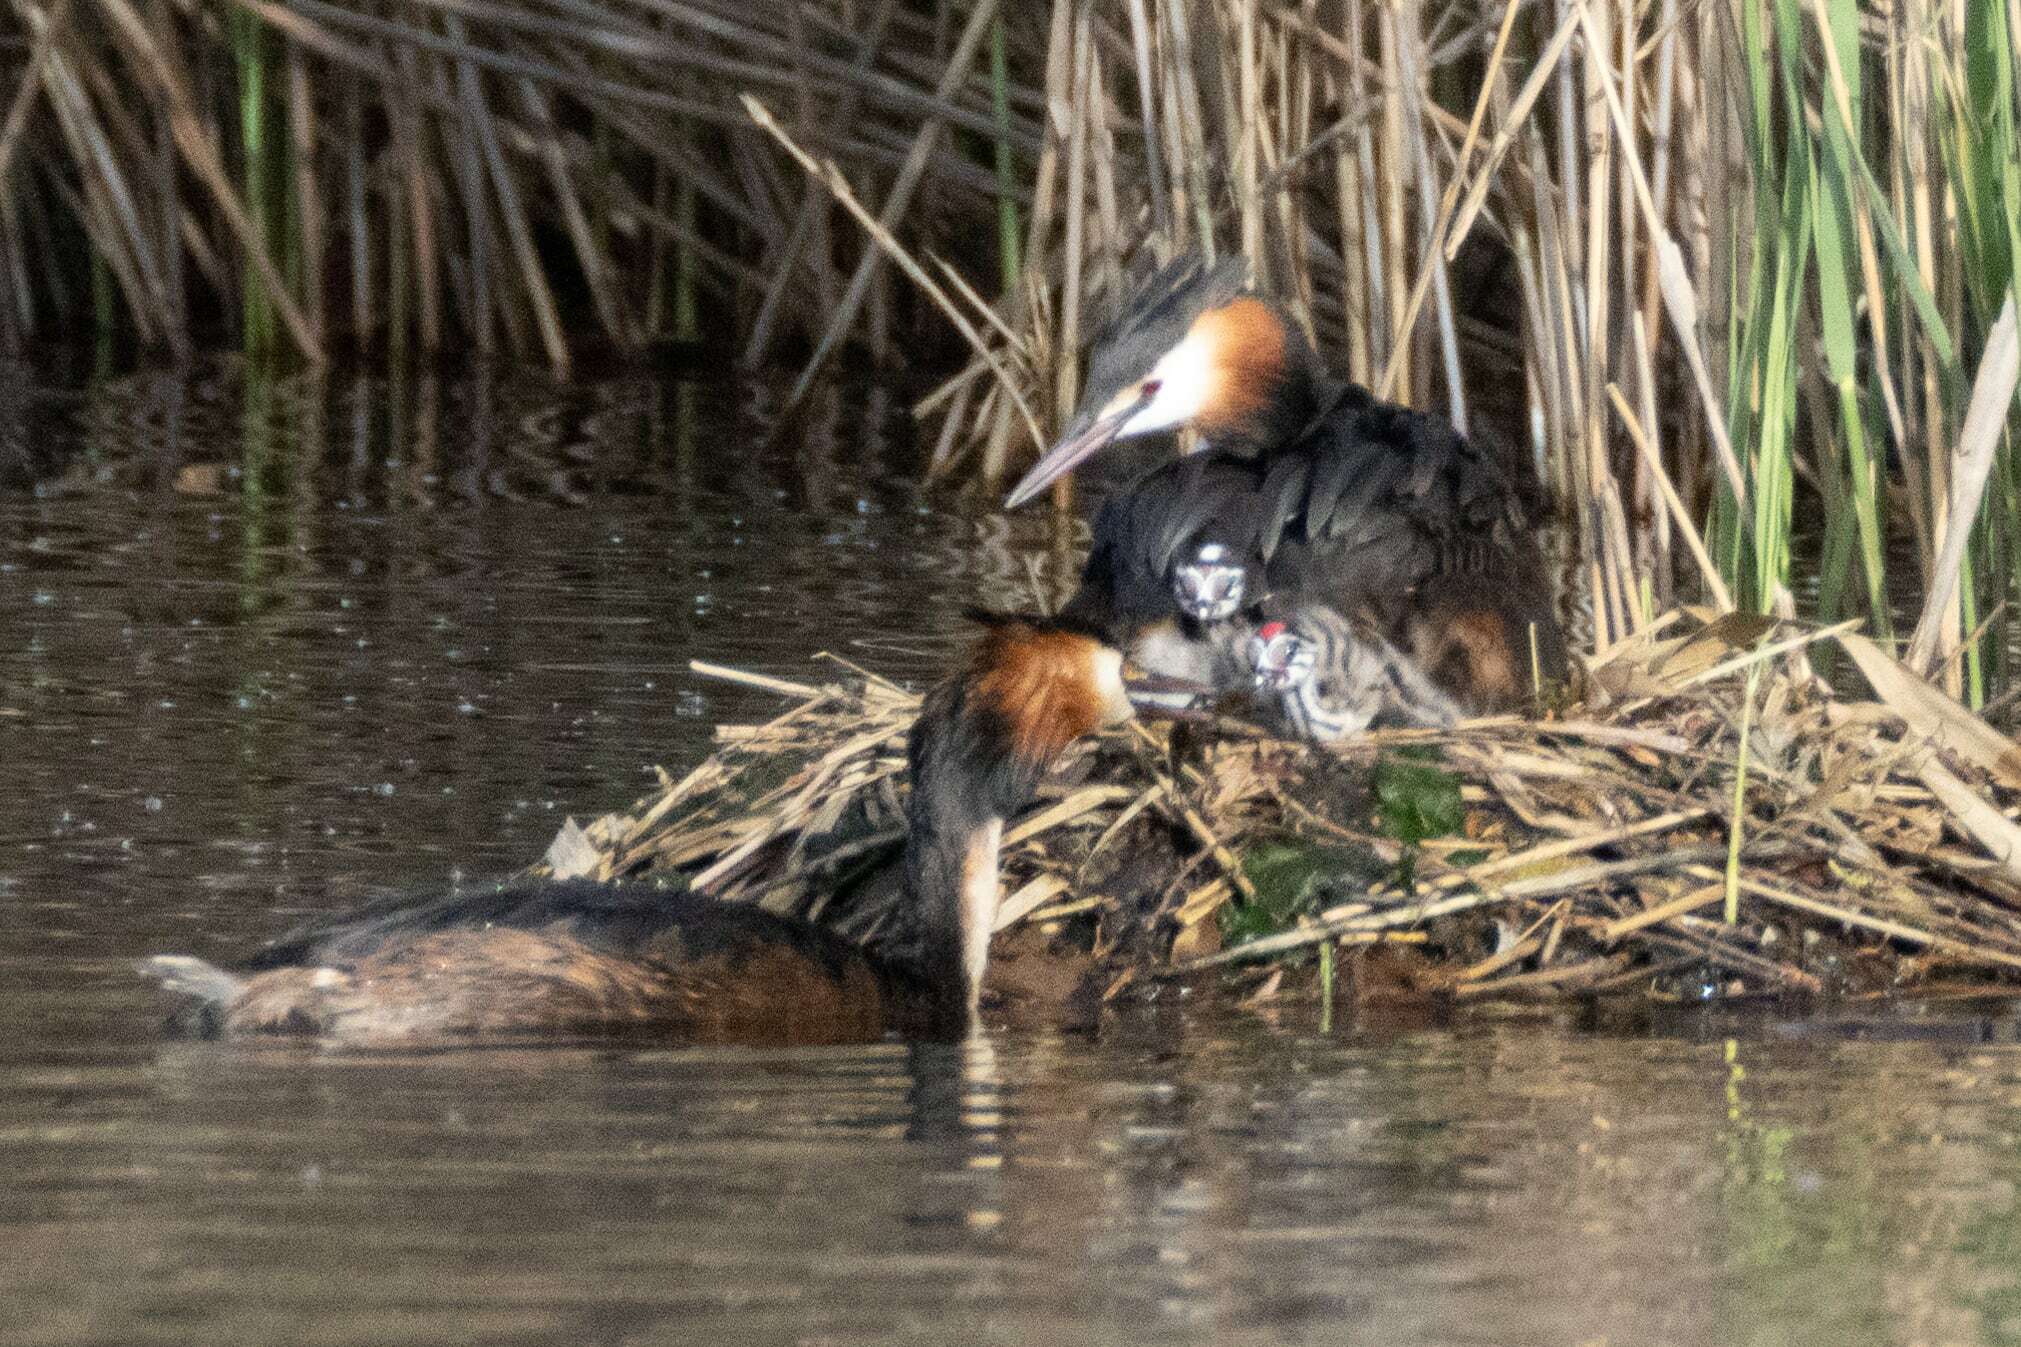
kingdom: Animalia
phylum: Chordata
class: Aves
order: Podicipediformes
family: Podicipedidae
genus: Podiceps
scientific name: Podiceps cristatus
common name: Great crested grebe
